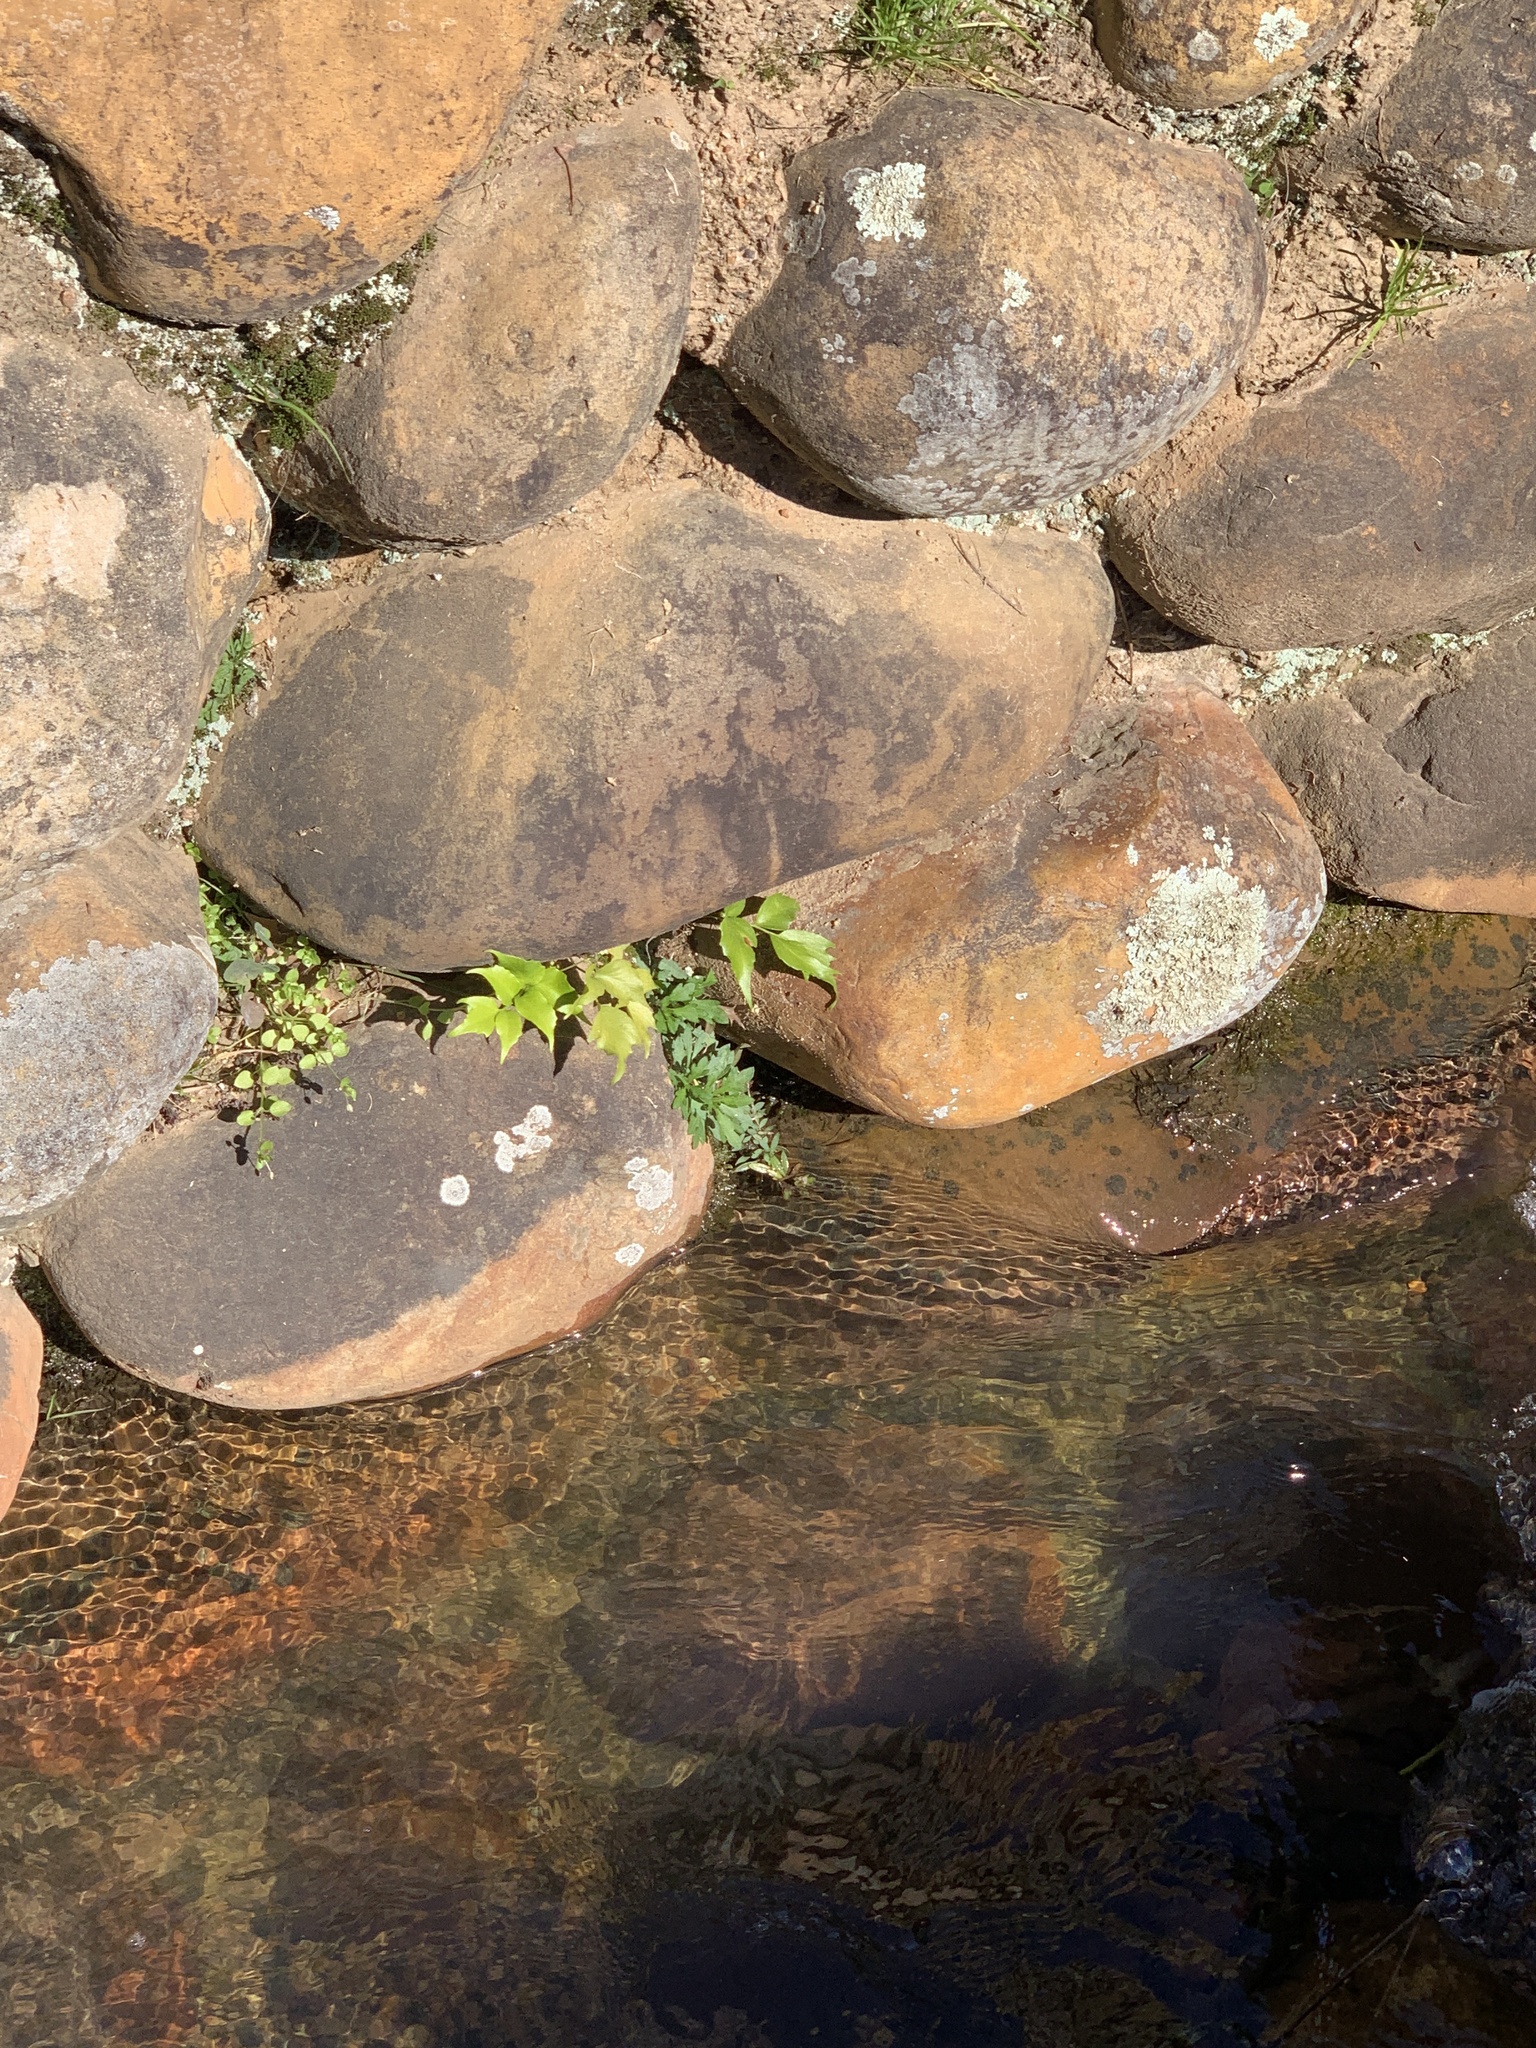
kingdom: Plantae
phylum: Tracheophyta
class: Polypodiopsida
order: Polypodiales
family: Dryopteridaceae
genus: Cyrtomium
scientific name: Cyrtomium falcatum
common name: House holly-fern
